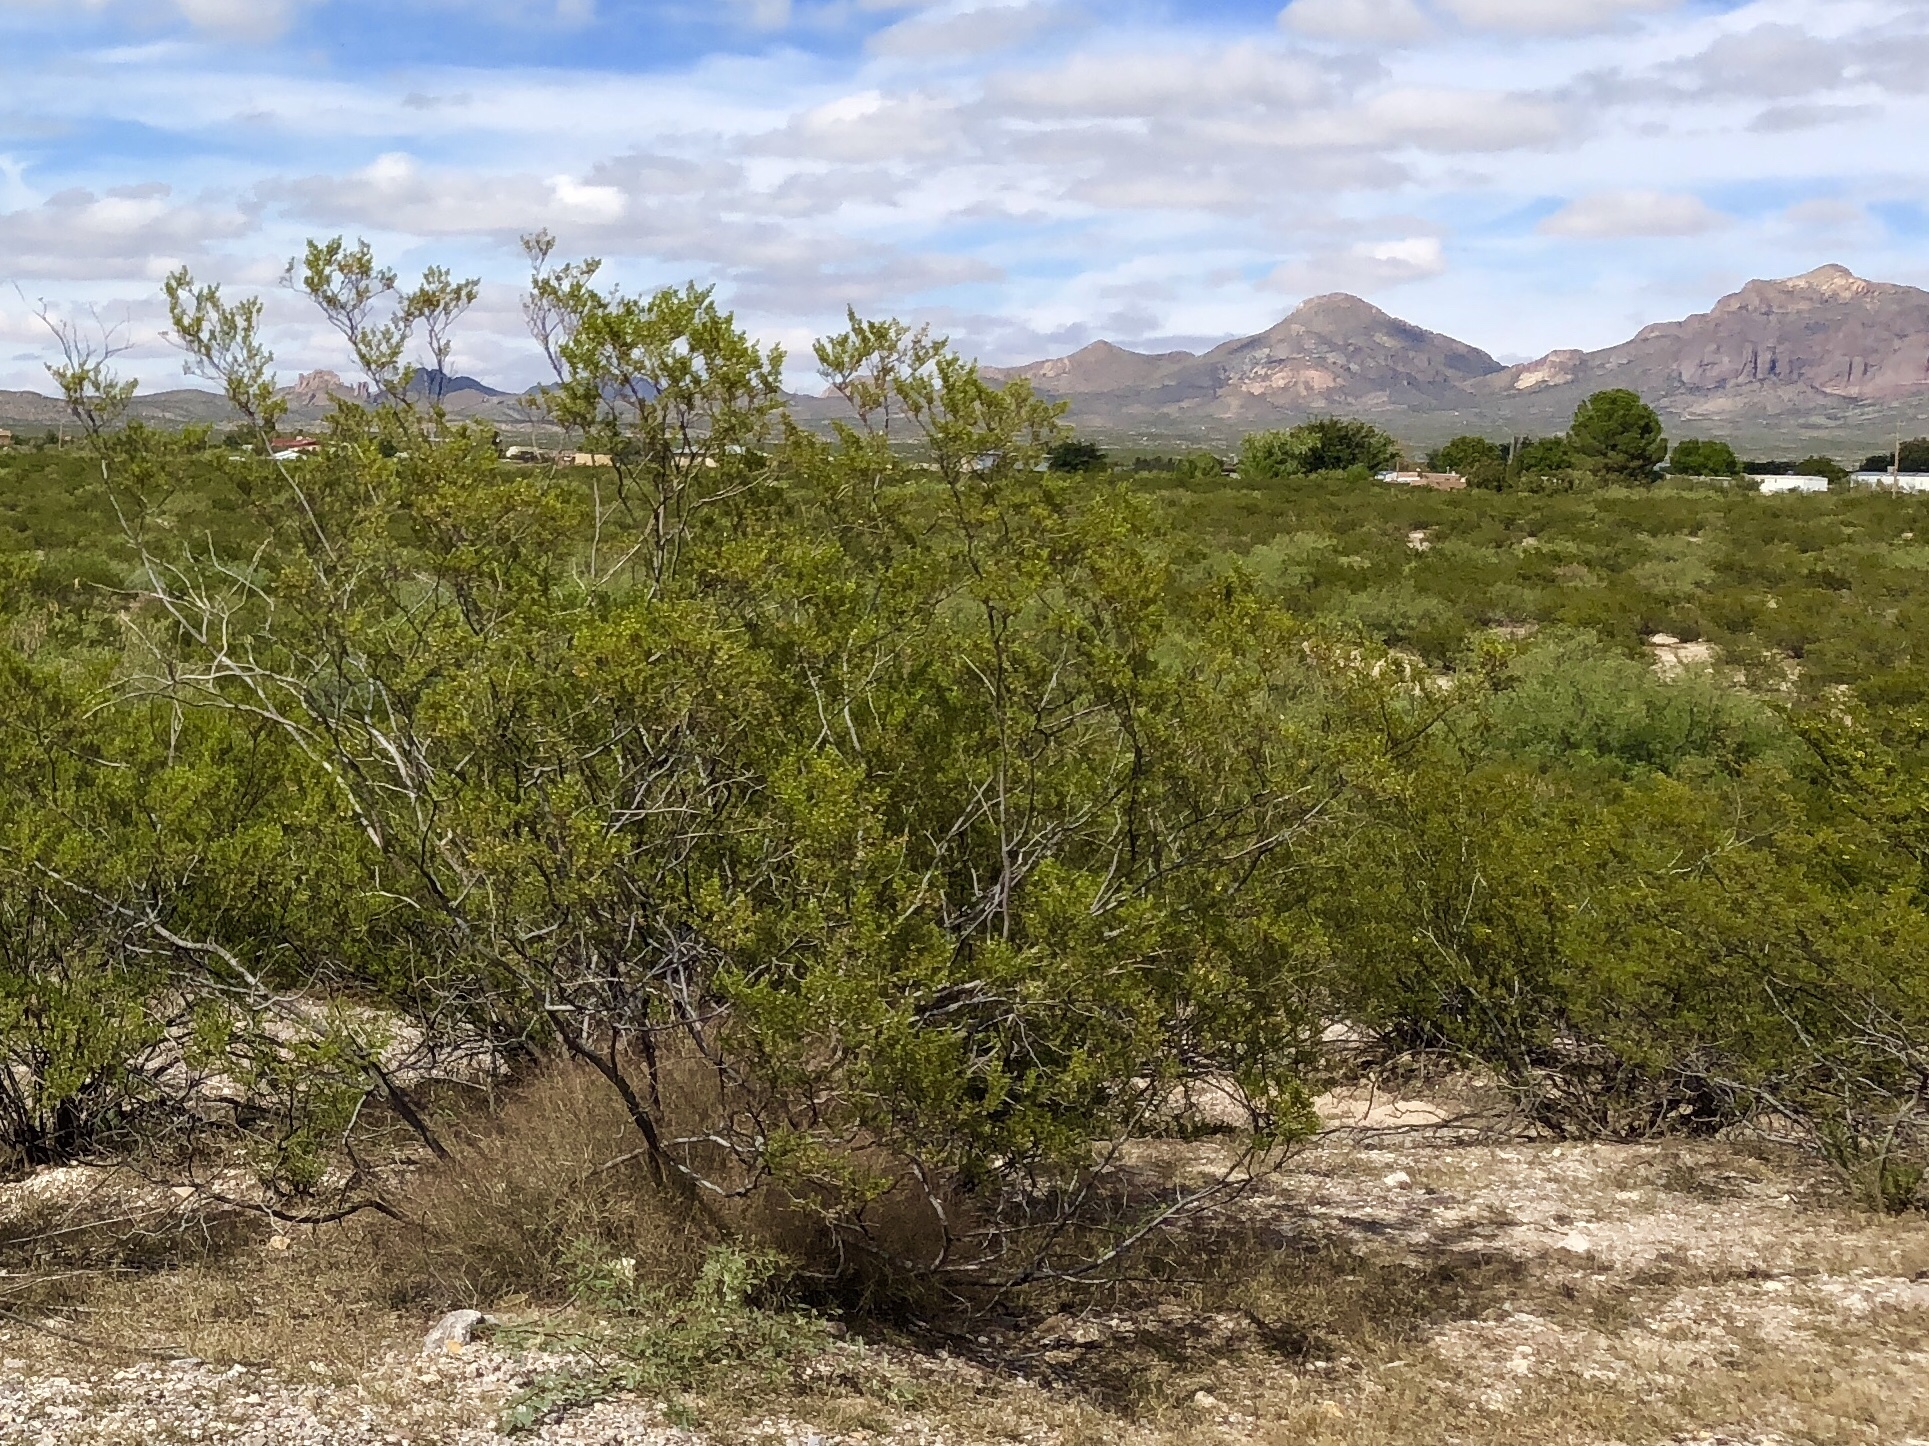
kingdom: Plantae
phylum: Tracheophyta
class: Magnoliopsida
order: Zygophyllales
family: Zygophyllaceae
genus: Larrea
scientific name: Larrea tridentata
